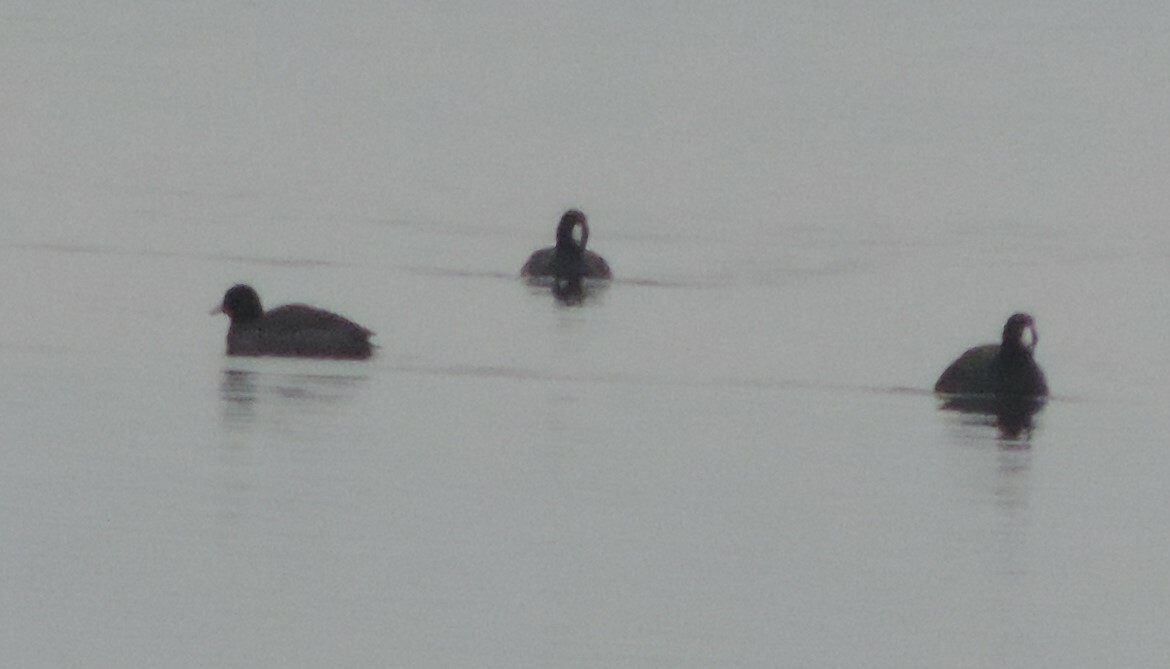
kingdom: Animalia
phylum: Chordata
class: Aves
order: Gruiformes
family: Rallidae
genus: Fulica
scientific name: Fulica americana
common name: American coot
